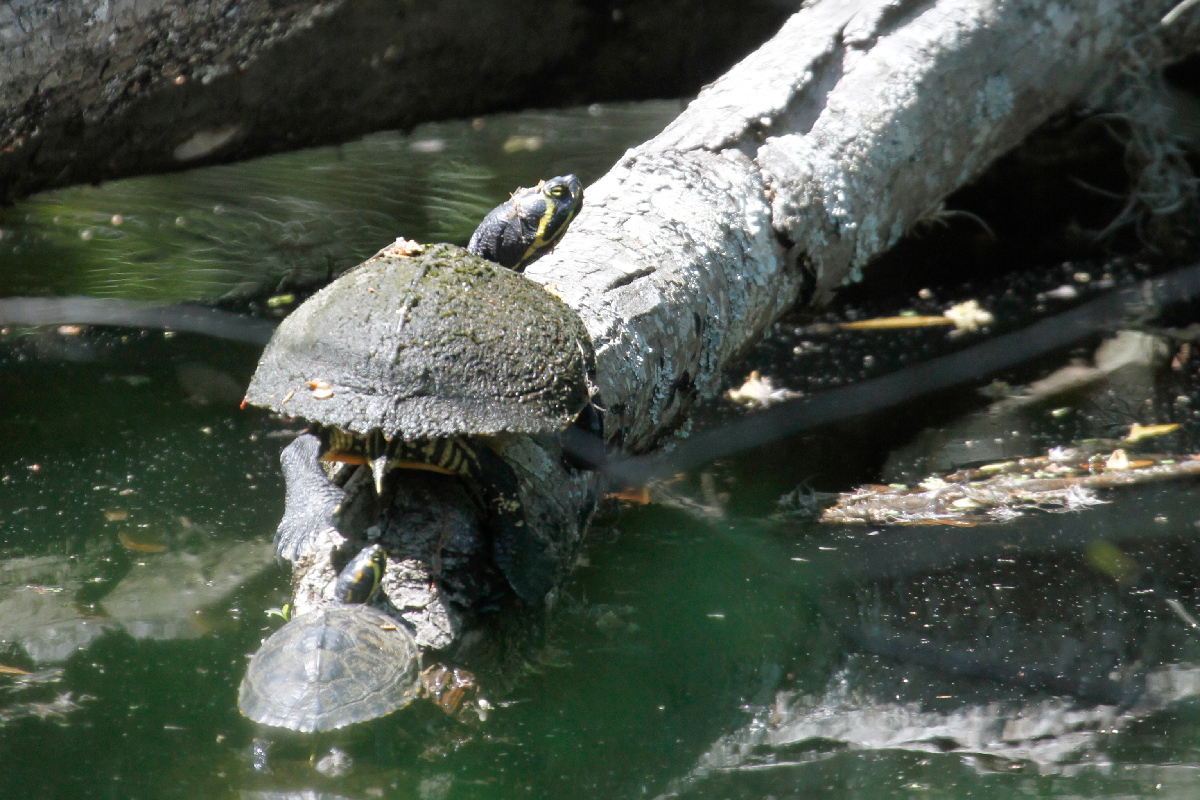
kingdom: Animalia
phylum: Chordata
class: Testudines
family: Emydidae
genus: Trachemys
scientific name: Trachemys scripta
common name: Slider
